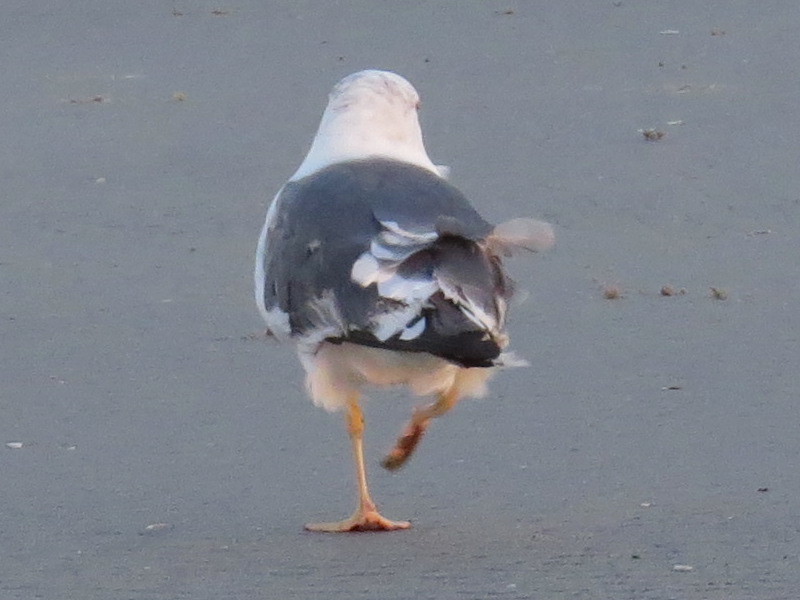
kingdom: Animalia
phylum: Chordata
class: Aves
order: Charadriiformes
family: Laridae
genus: Larus
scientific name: Larus fuscus
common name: Lesser black-backed gull
